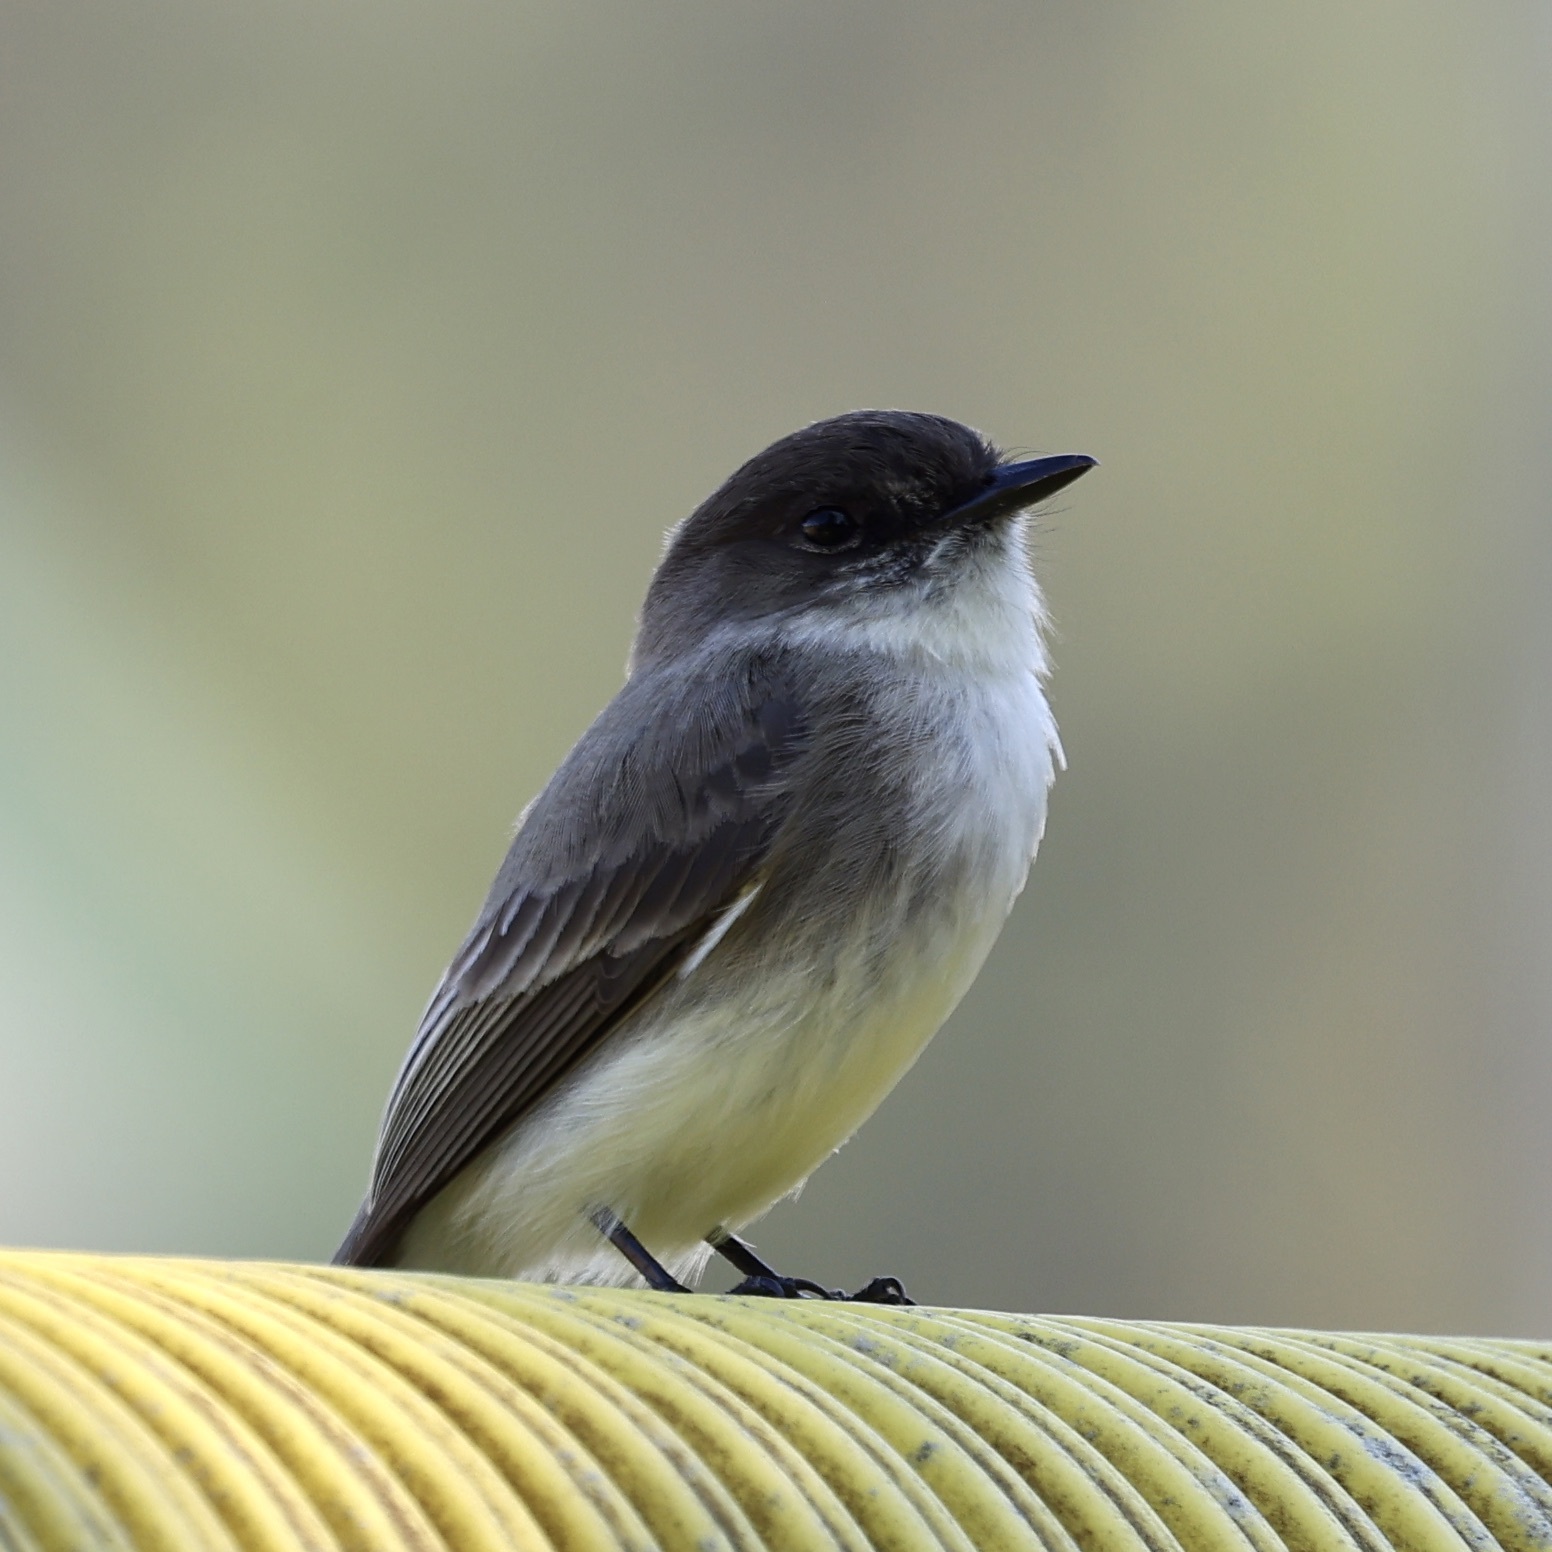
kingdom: Animalia
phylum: Chordata
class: Aves
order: Passeriformes
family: Tyrannidae
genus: Sayornis
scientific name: Sayornis phoebe
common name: Eastern phoebe
